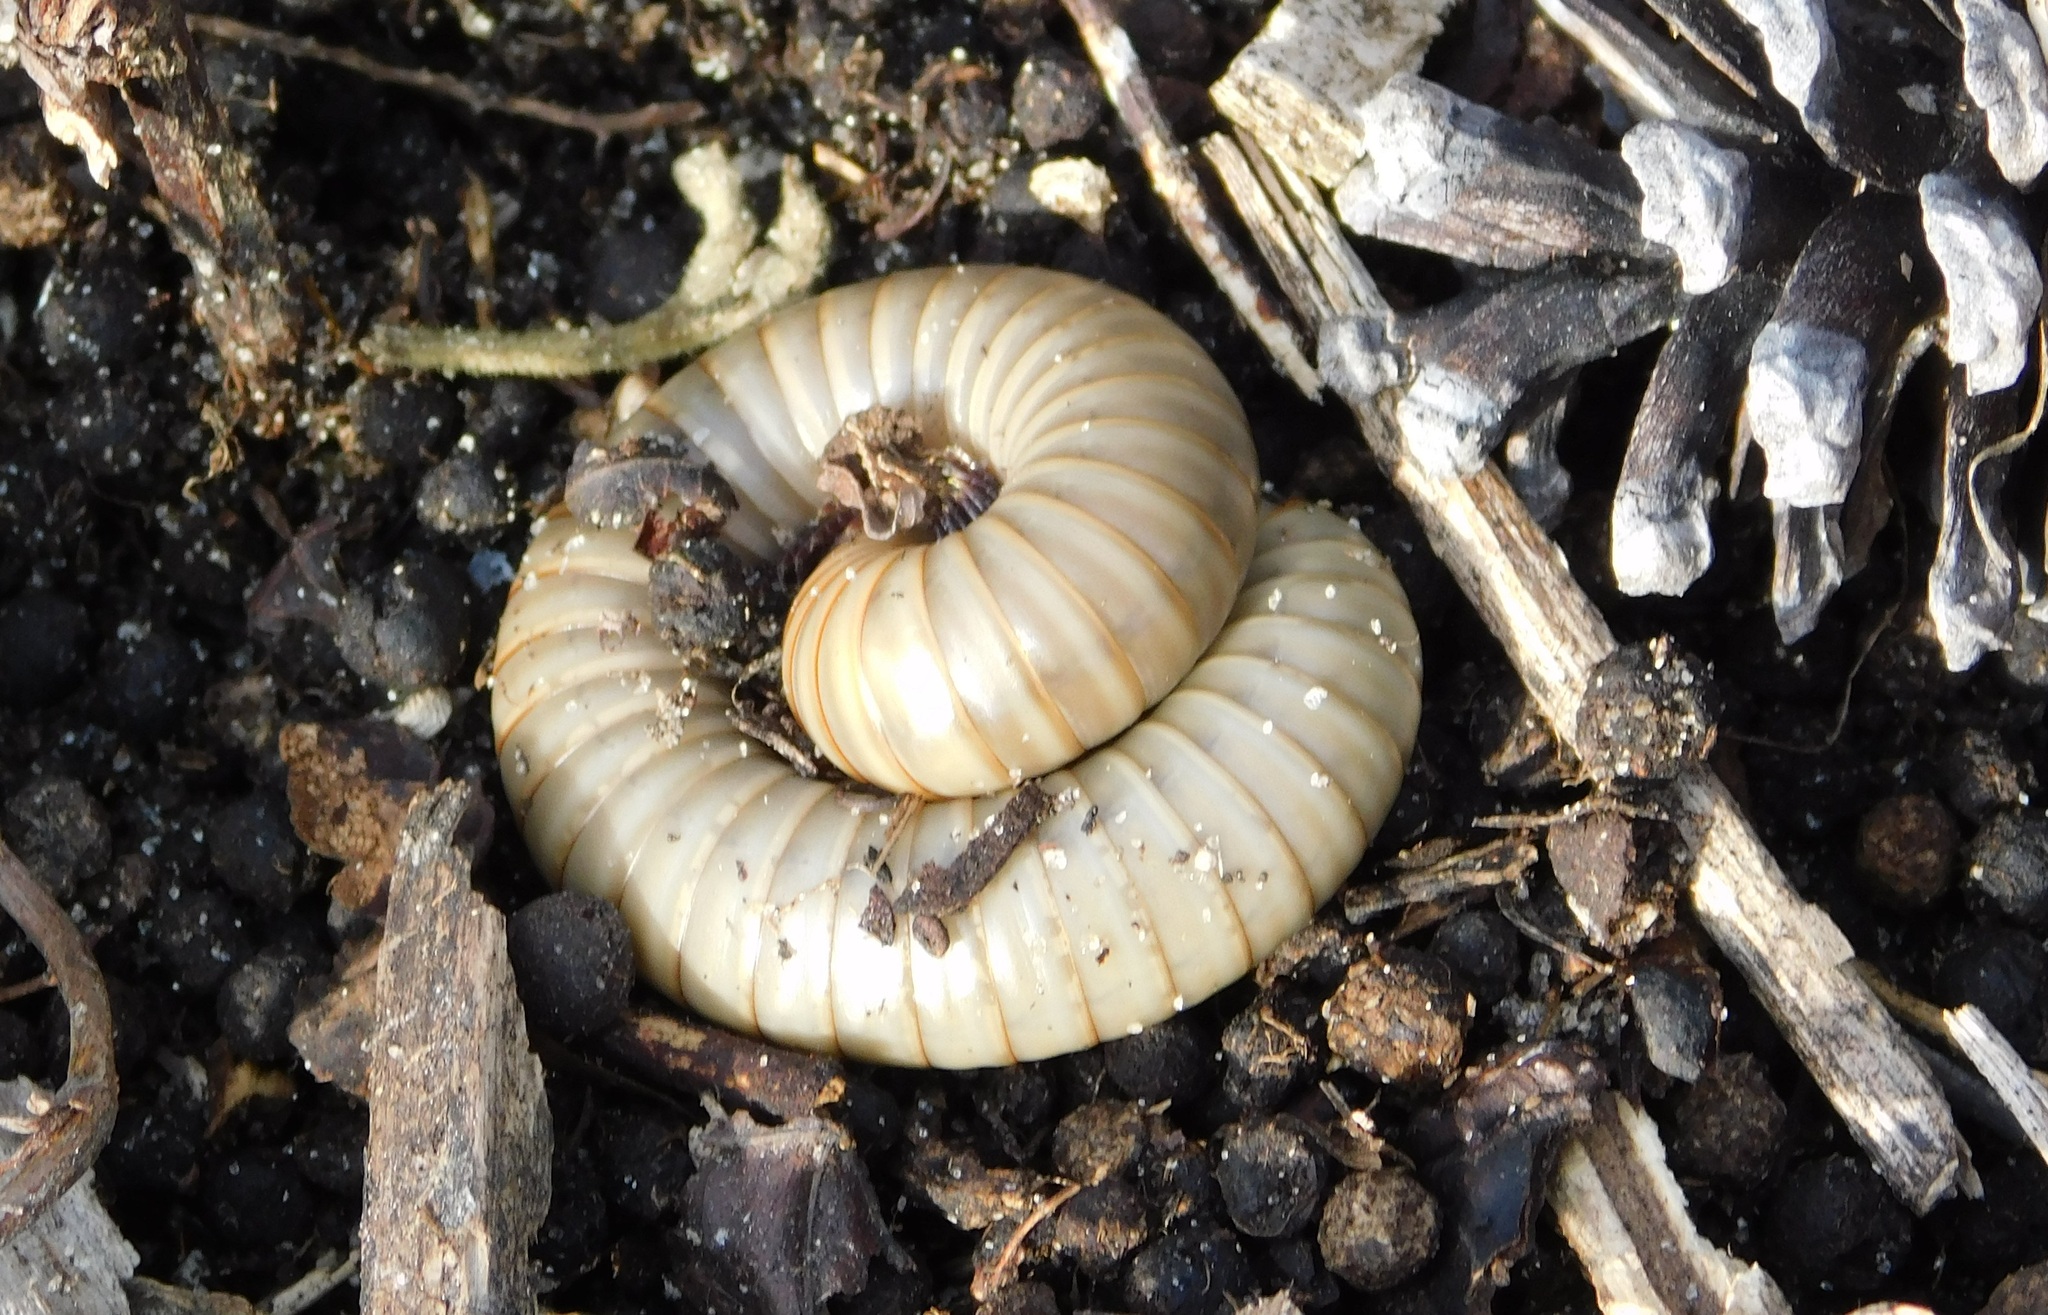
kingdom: Animalia
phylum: Arthropoda
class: Diplopoda
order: Spirobolida
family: Spirobolidae
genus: Narceus
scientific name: Narceus gordanus
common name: Grayish-green millipede
